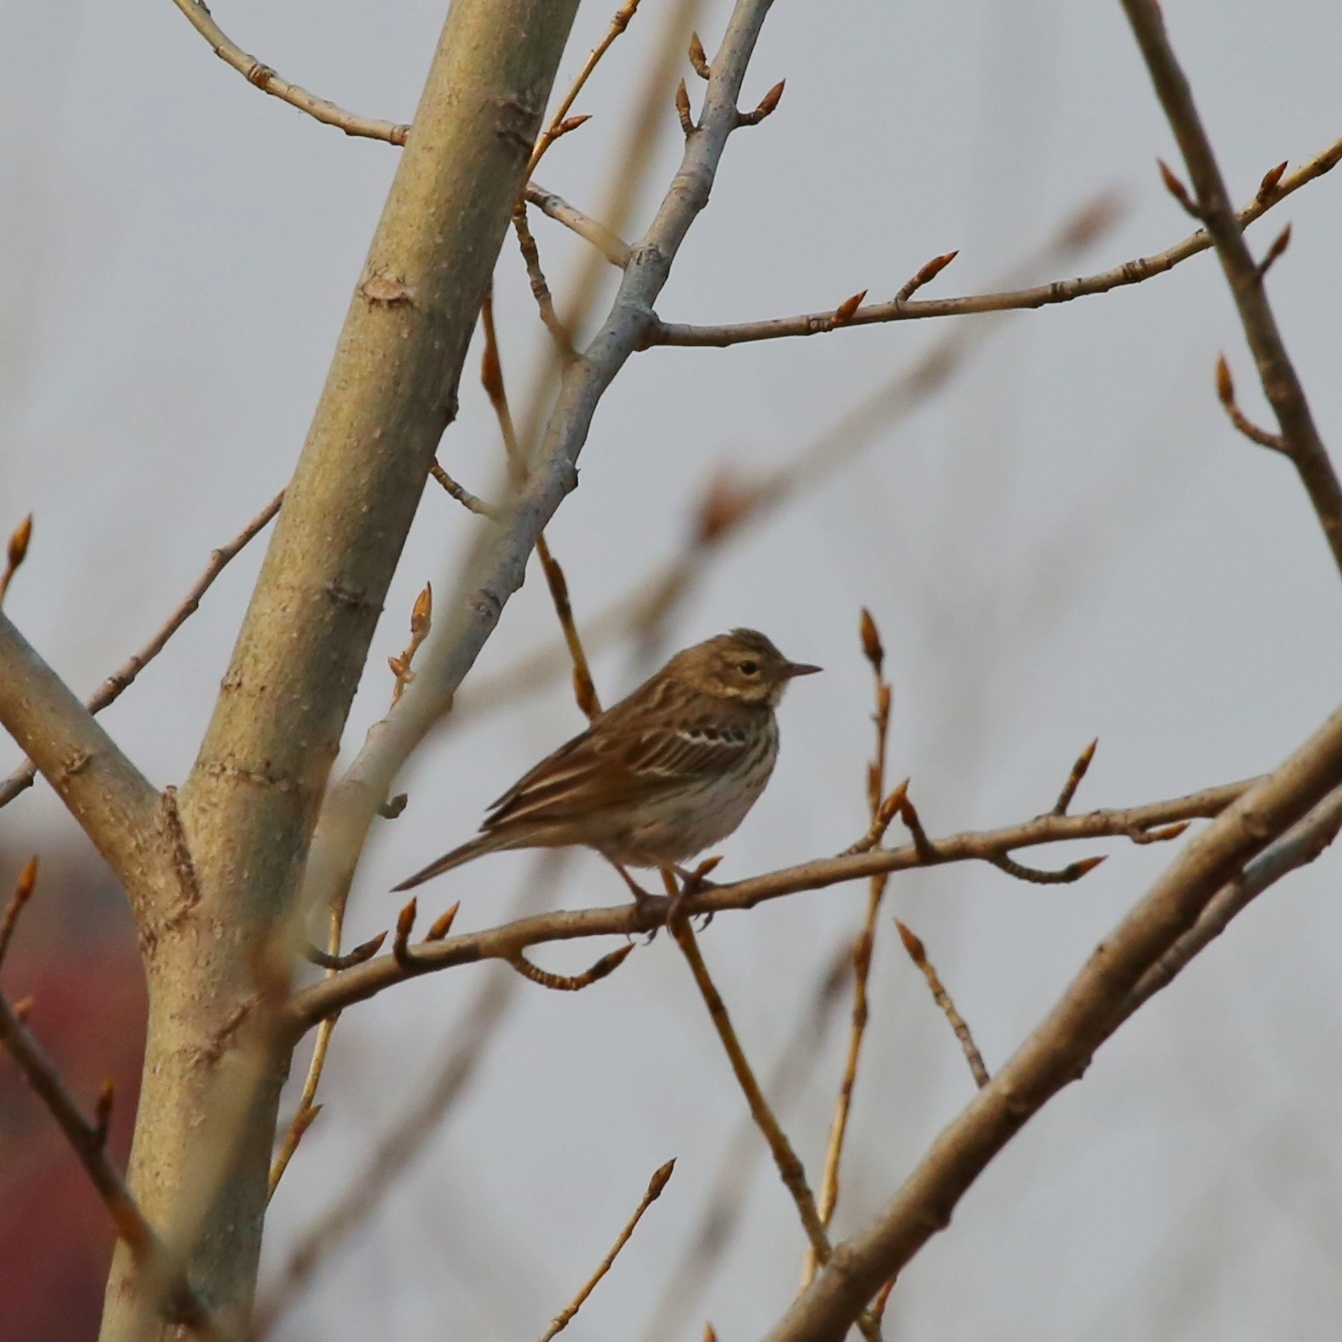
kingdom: Animalia
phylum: Chordata
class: Aves
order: Passeriformes
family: Motacillidae
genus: Anthus
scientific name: Anthus trivialis
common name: Tree pipit
